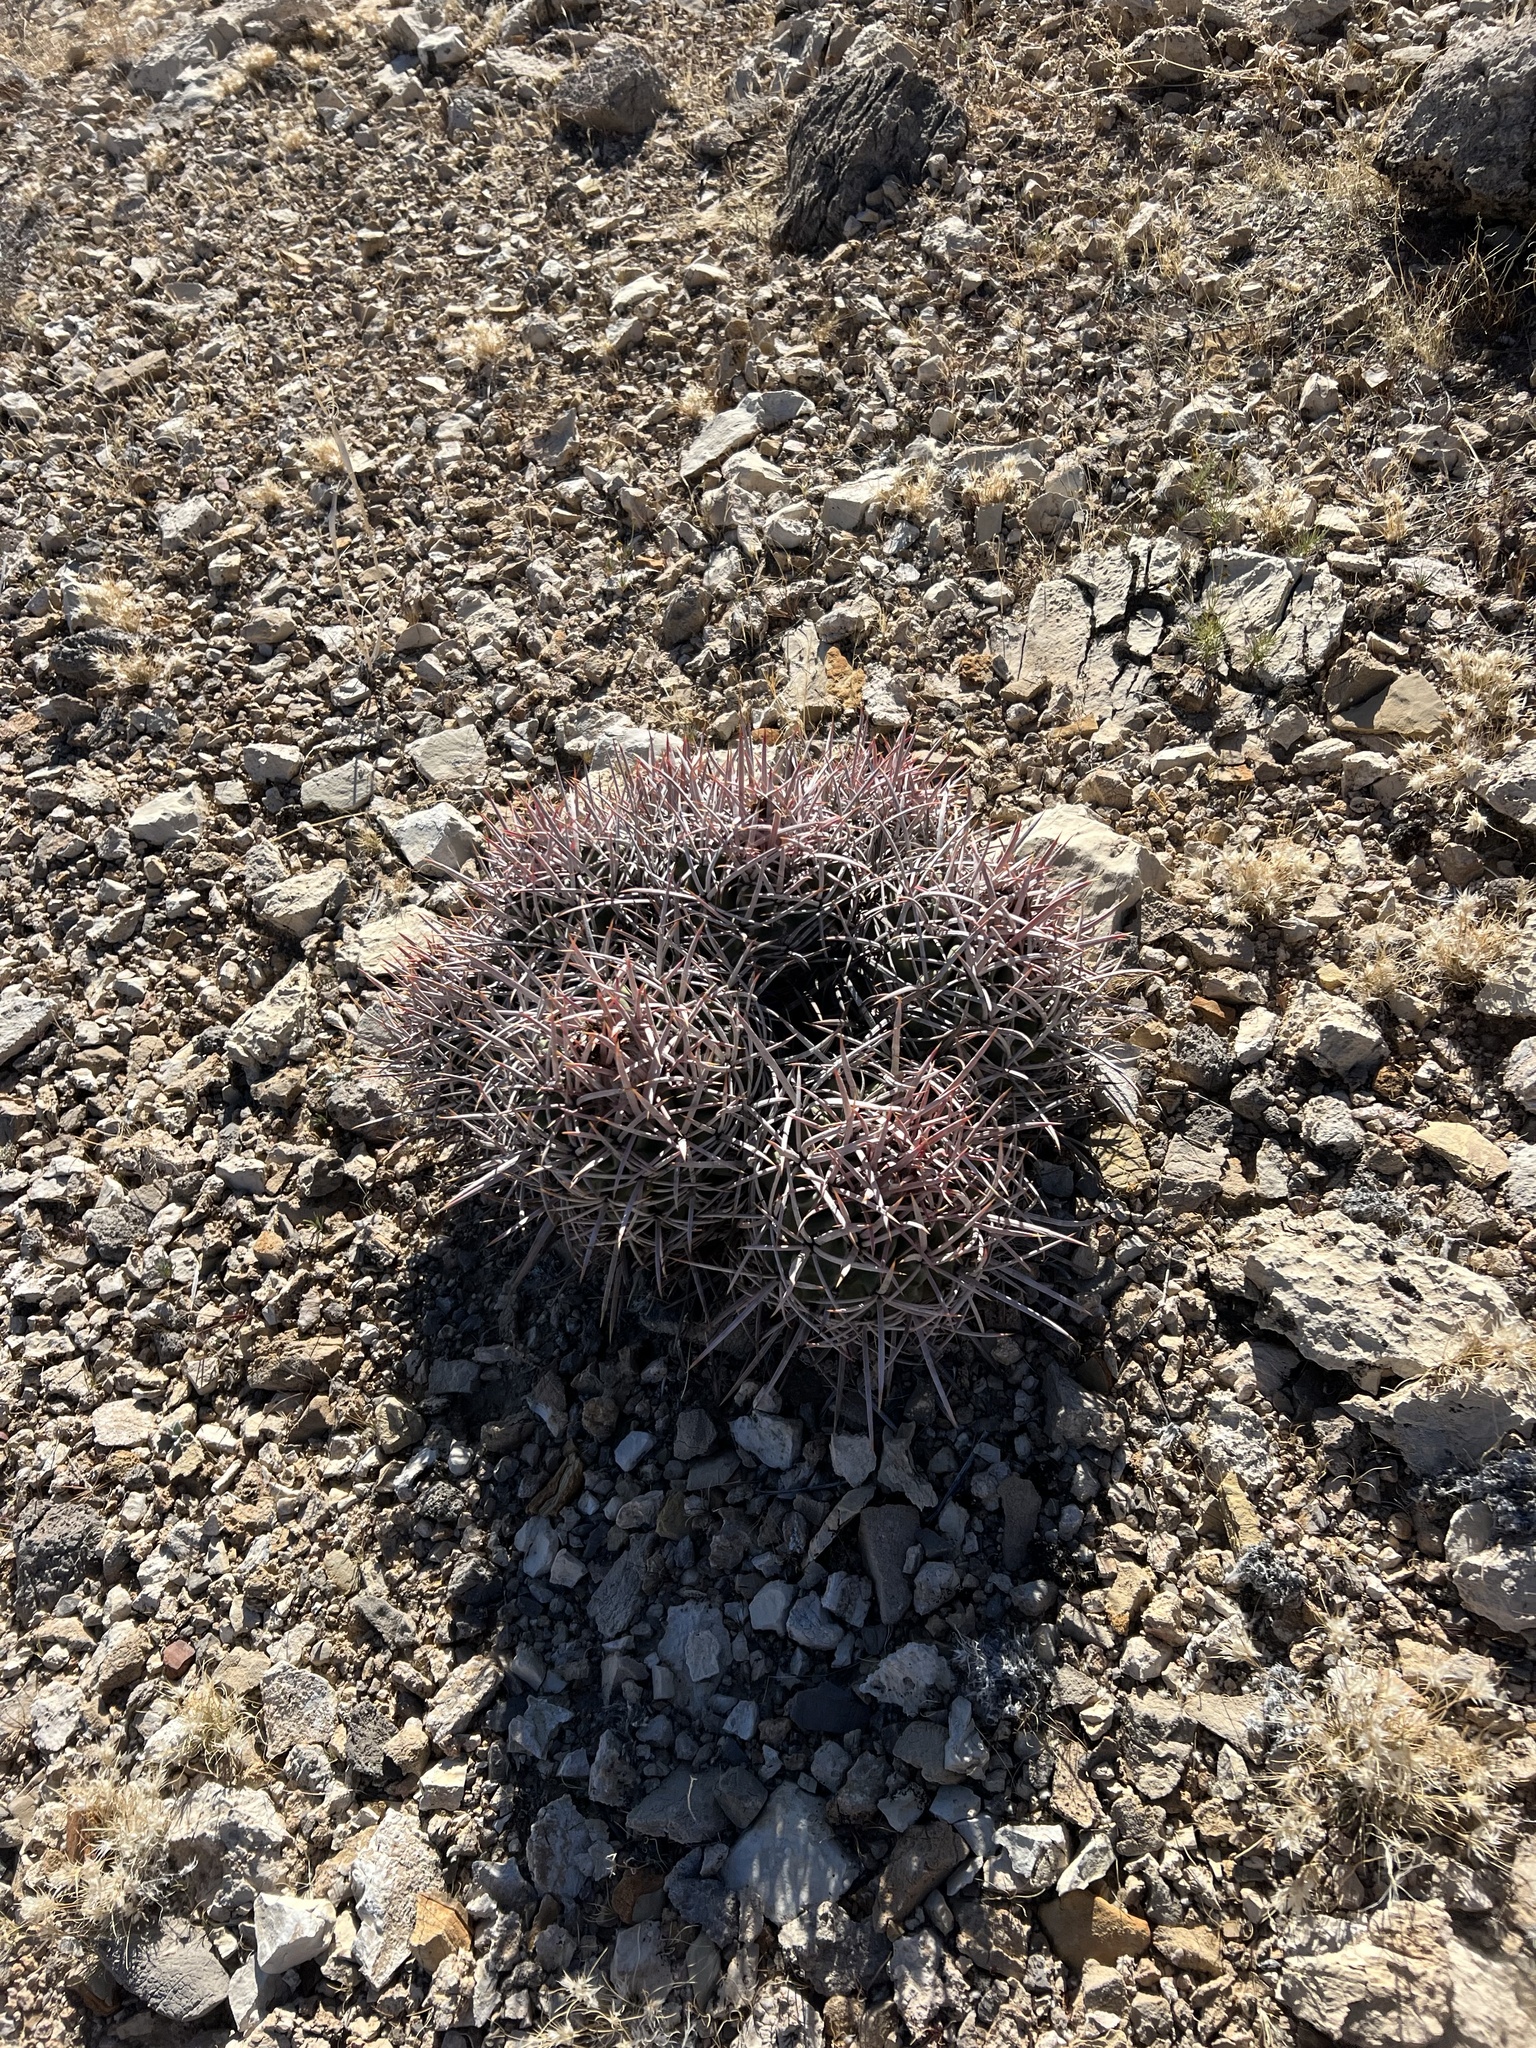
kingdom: Plantae
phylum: Tracheophyta
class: Magnoliopsida
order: Caryophyllales
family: Cactaceae
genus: Echinocactus
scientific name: Echinocactus polycephalus
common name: Cottontop cactus
